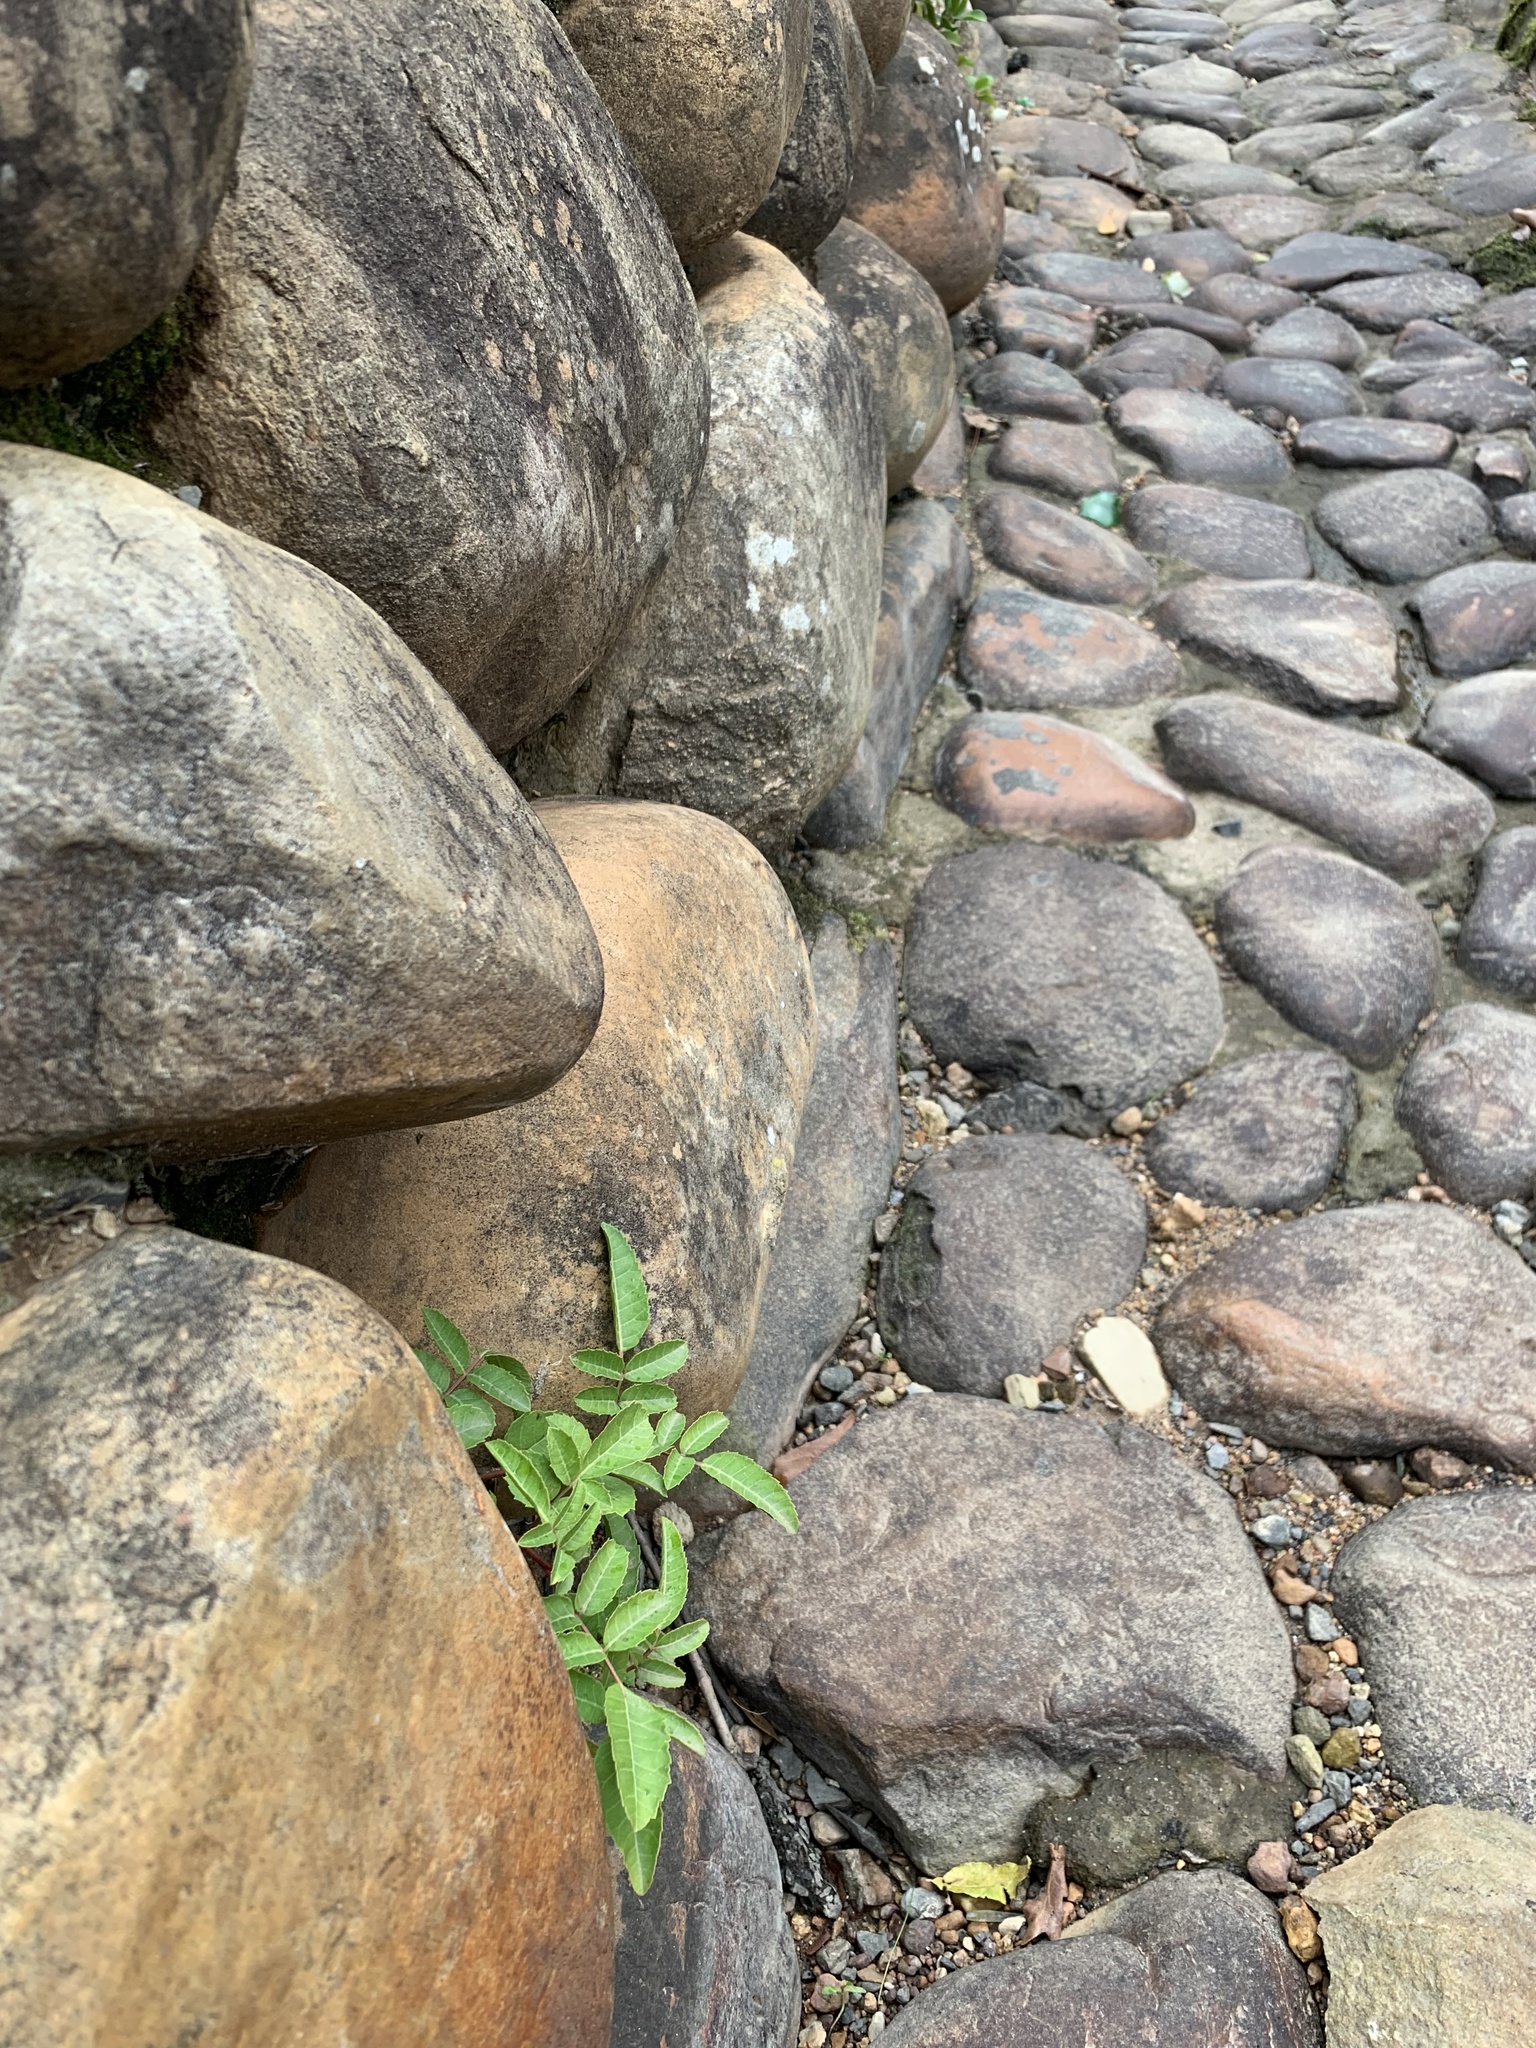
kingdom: Plantae
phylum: Tracheophyta
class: Magnoliopsida
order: Sapindales
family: Anacardiaceae
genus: Schinus
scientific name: Schinus terebinthifolia
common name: Brazilian peppertree
